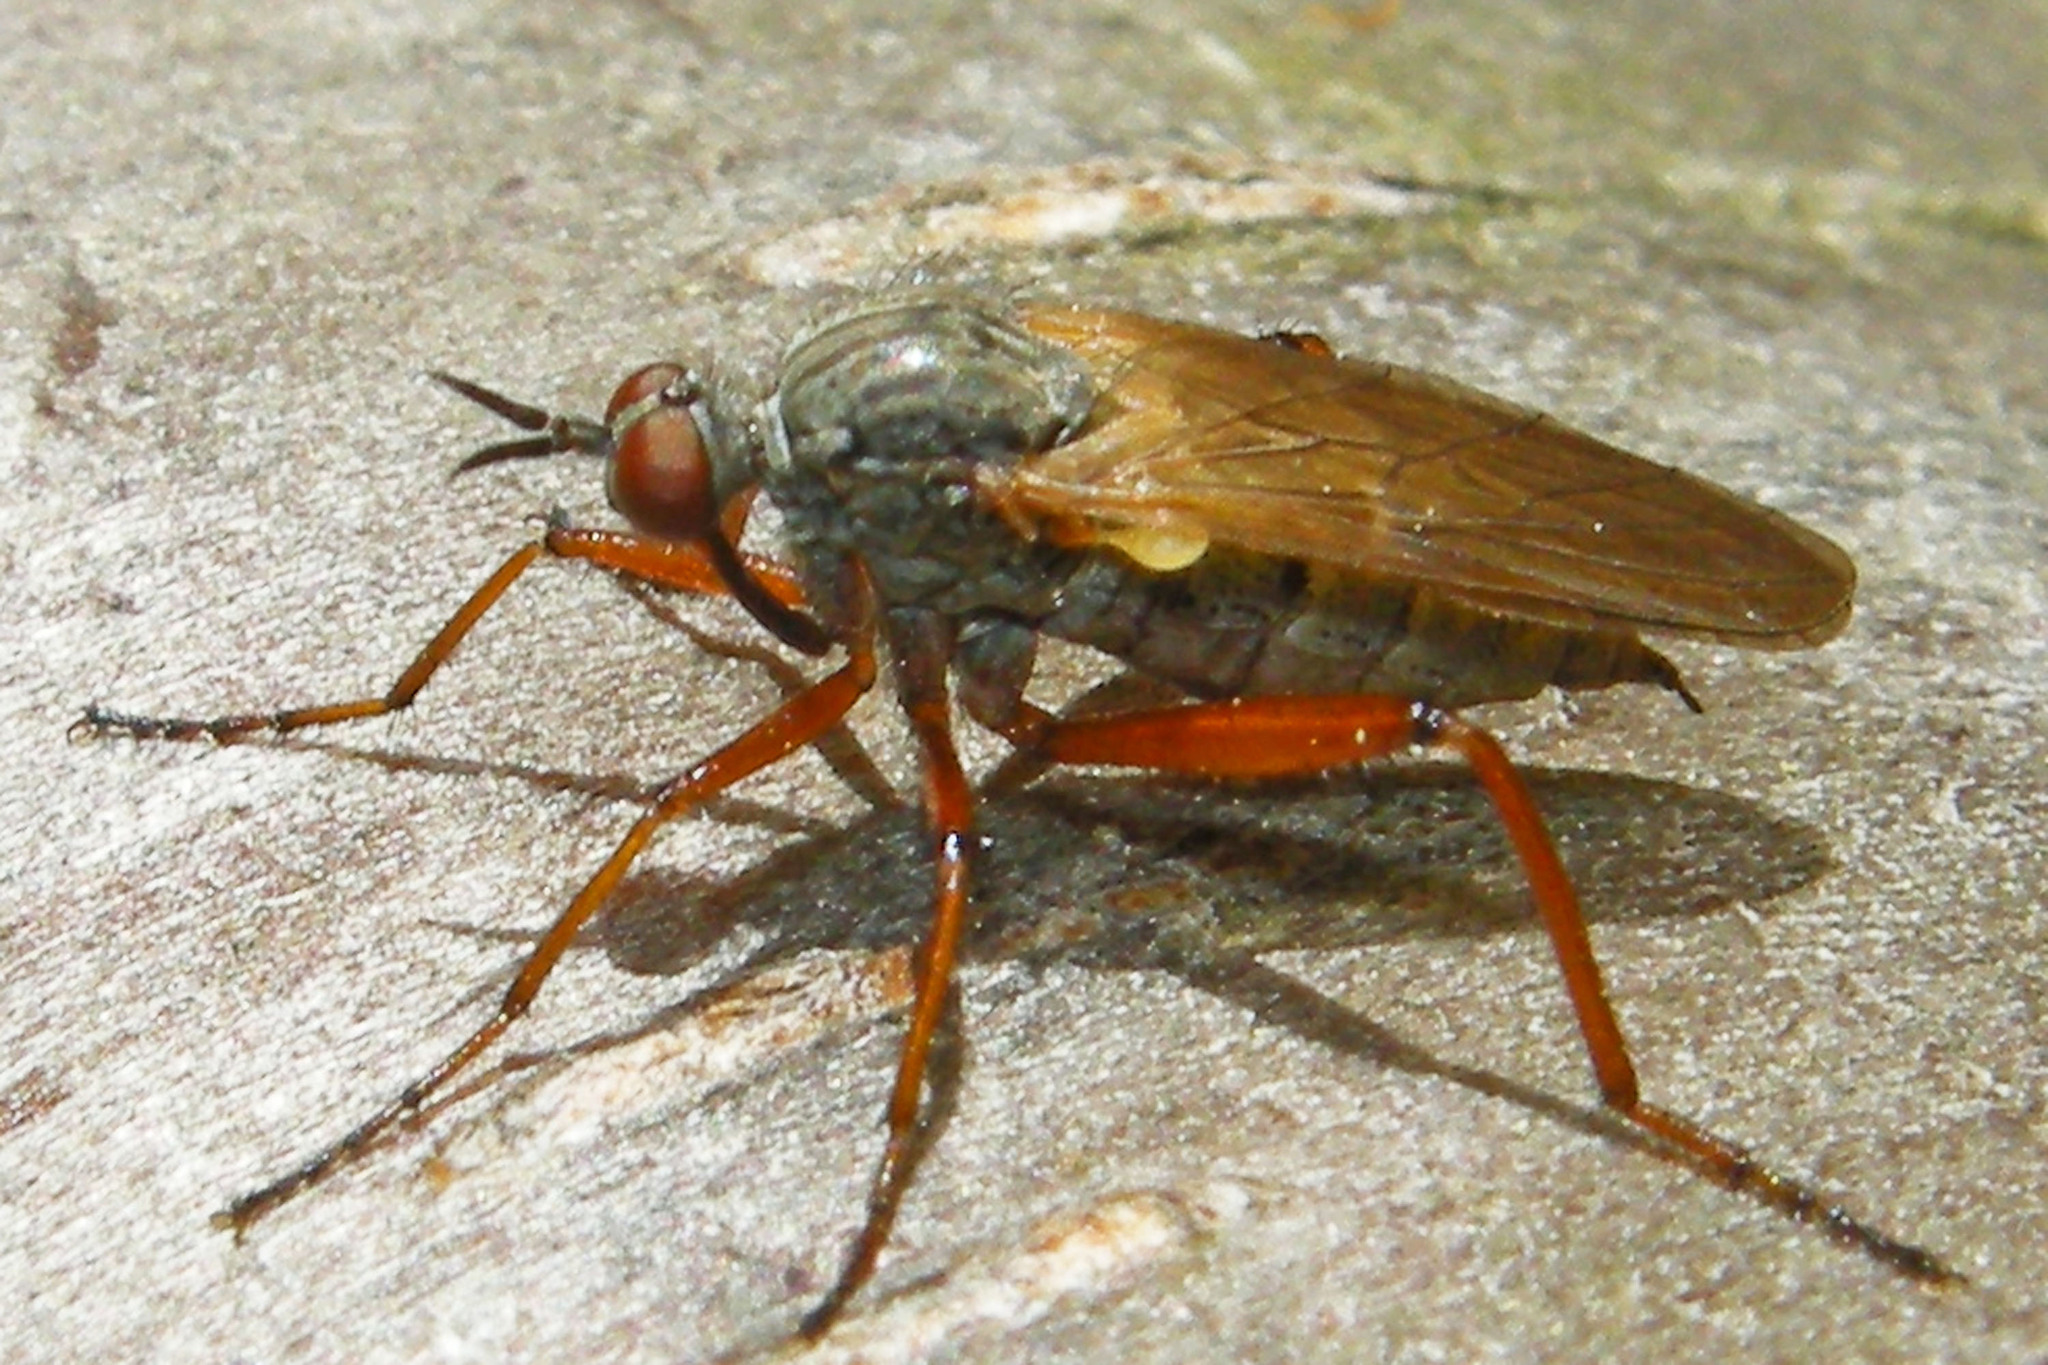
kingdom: Animalia
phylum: Arthropoda
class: Insecta
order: Diptera
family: Empididae
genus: Empis
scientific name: Empis spectabilis
